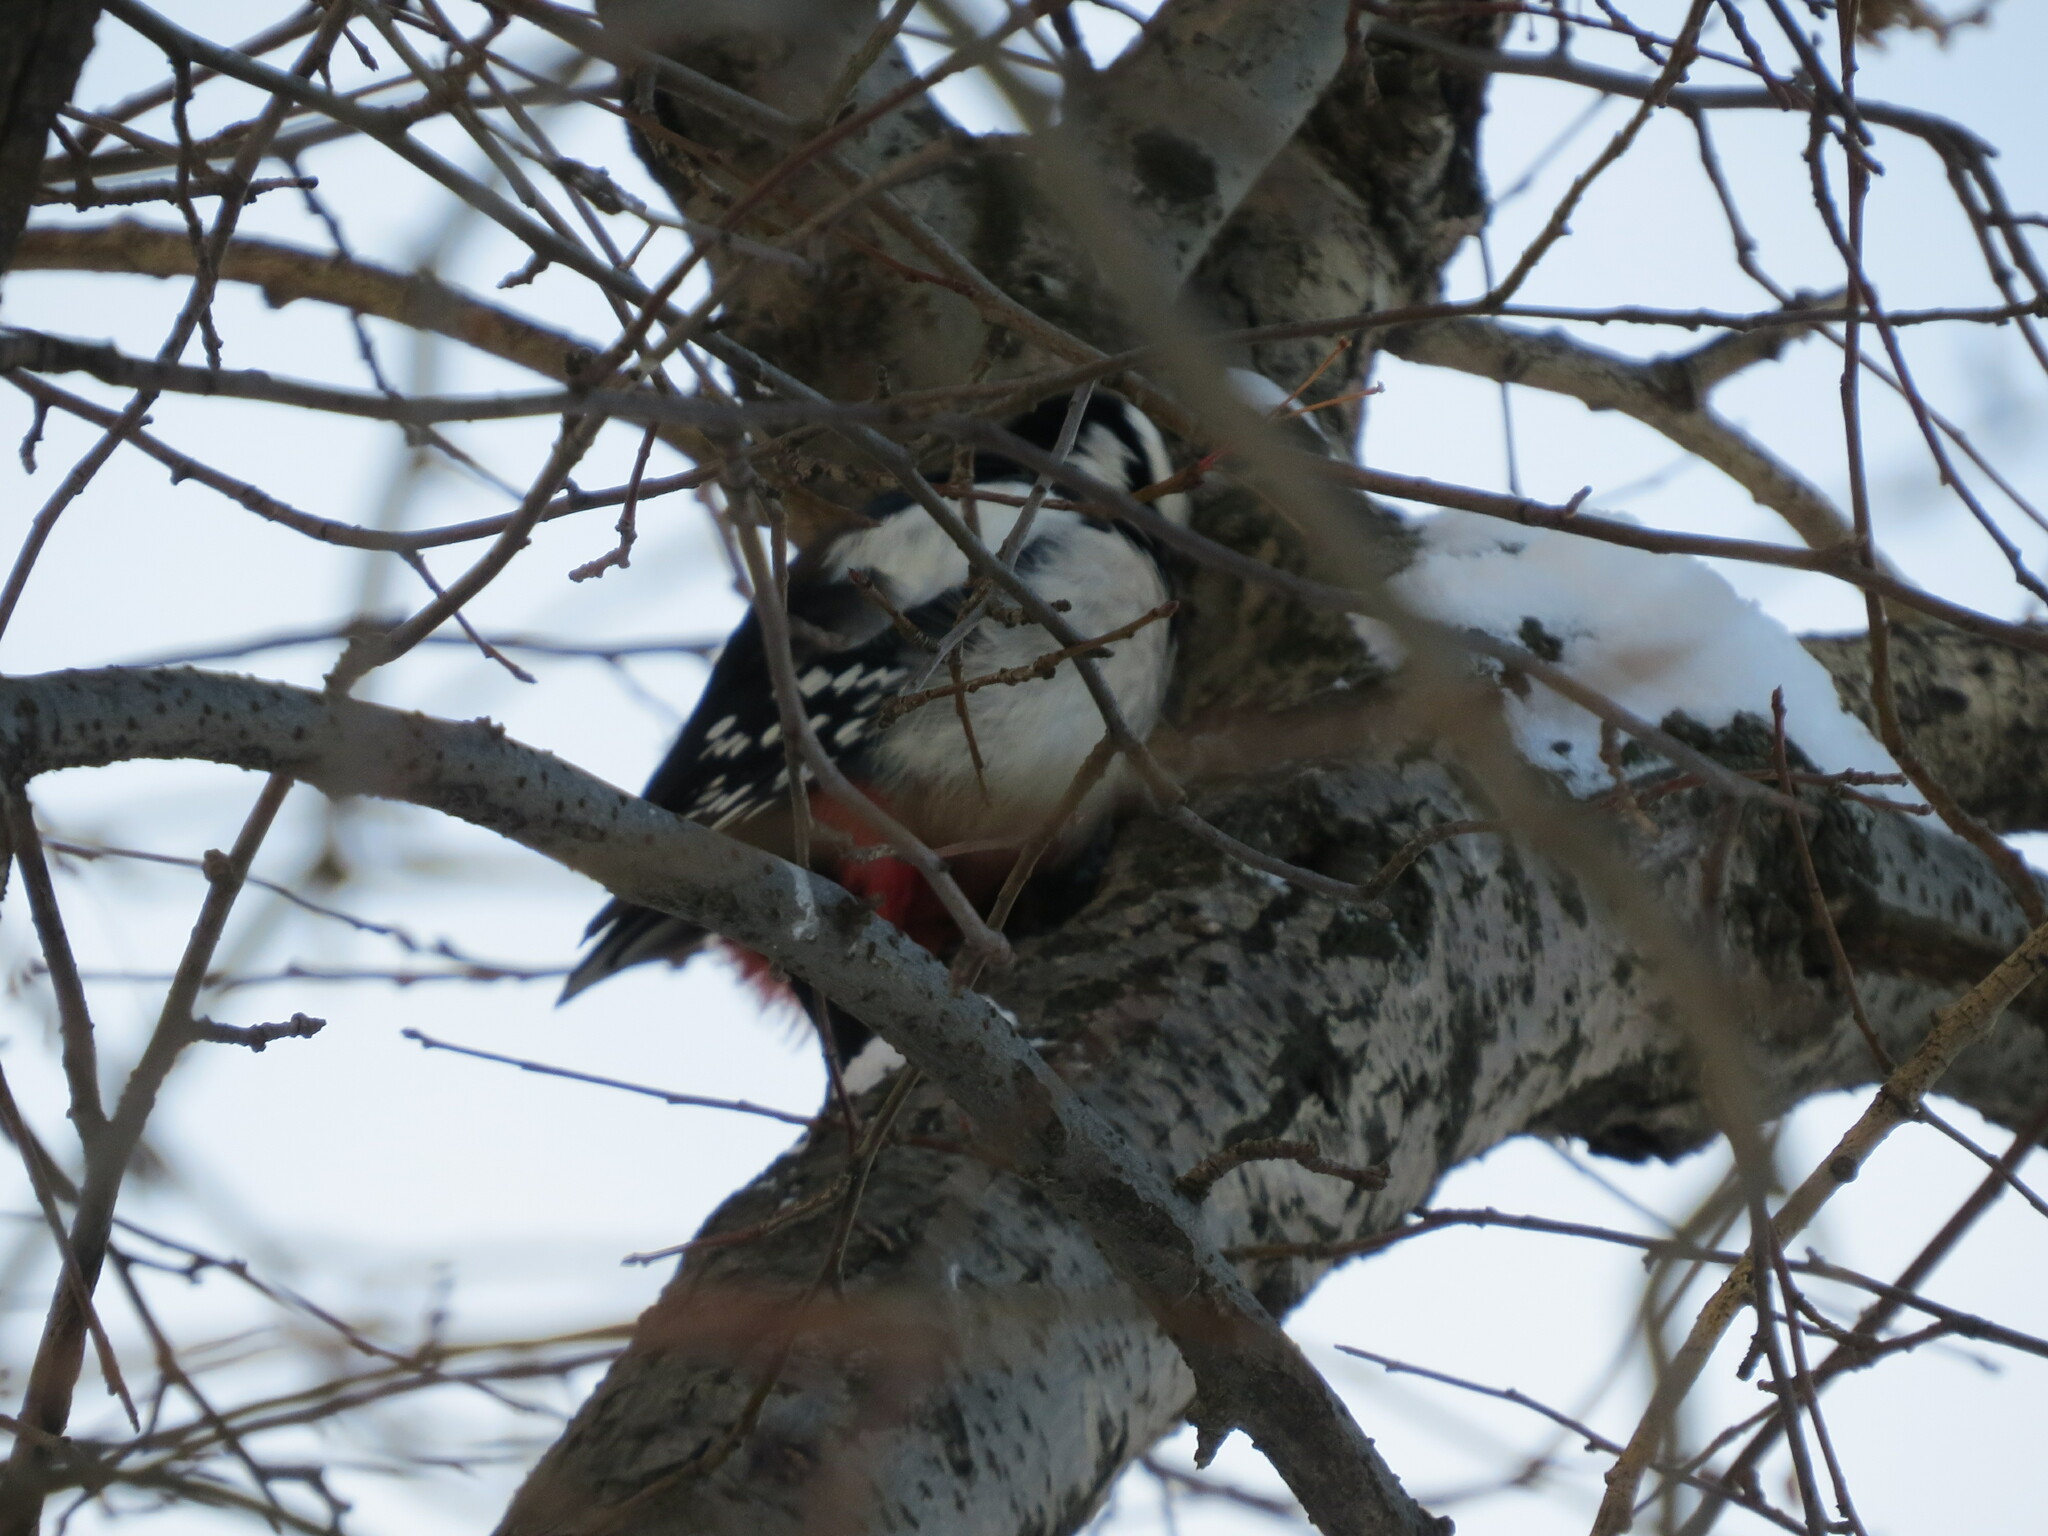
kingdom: Animalia
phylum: Chordata
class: Aves
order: Piciformes
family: Picidae
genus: Dendrocopos
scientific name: Dendrocopos major
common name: Great spotted woodpecker
